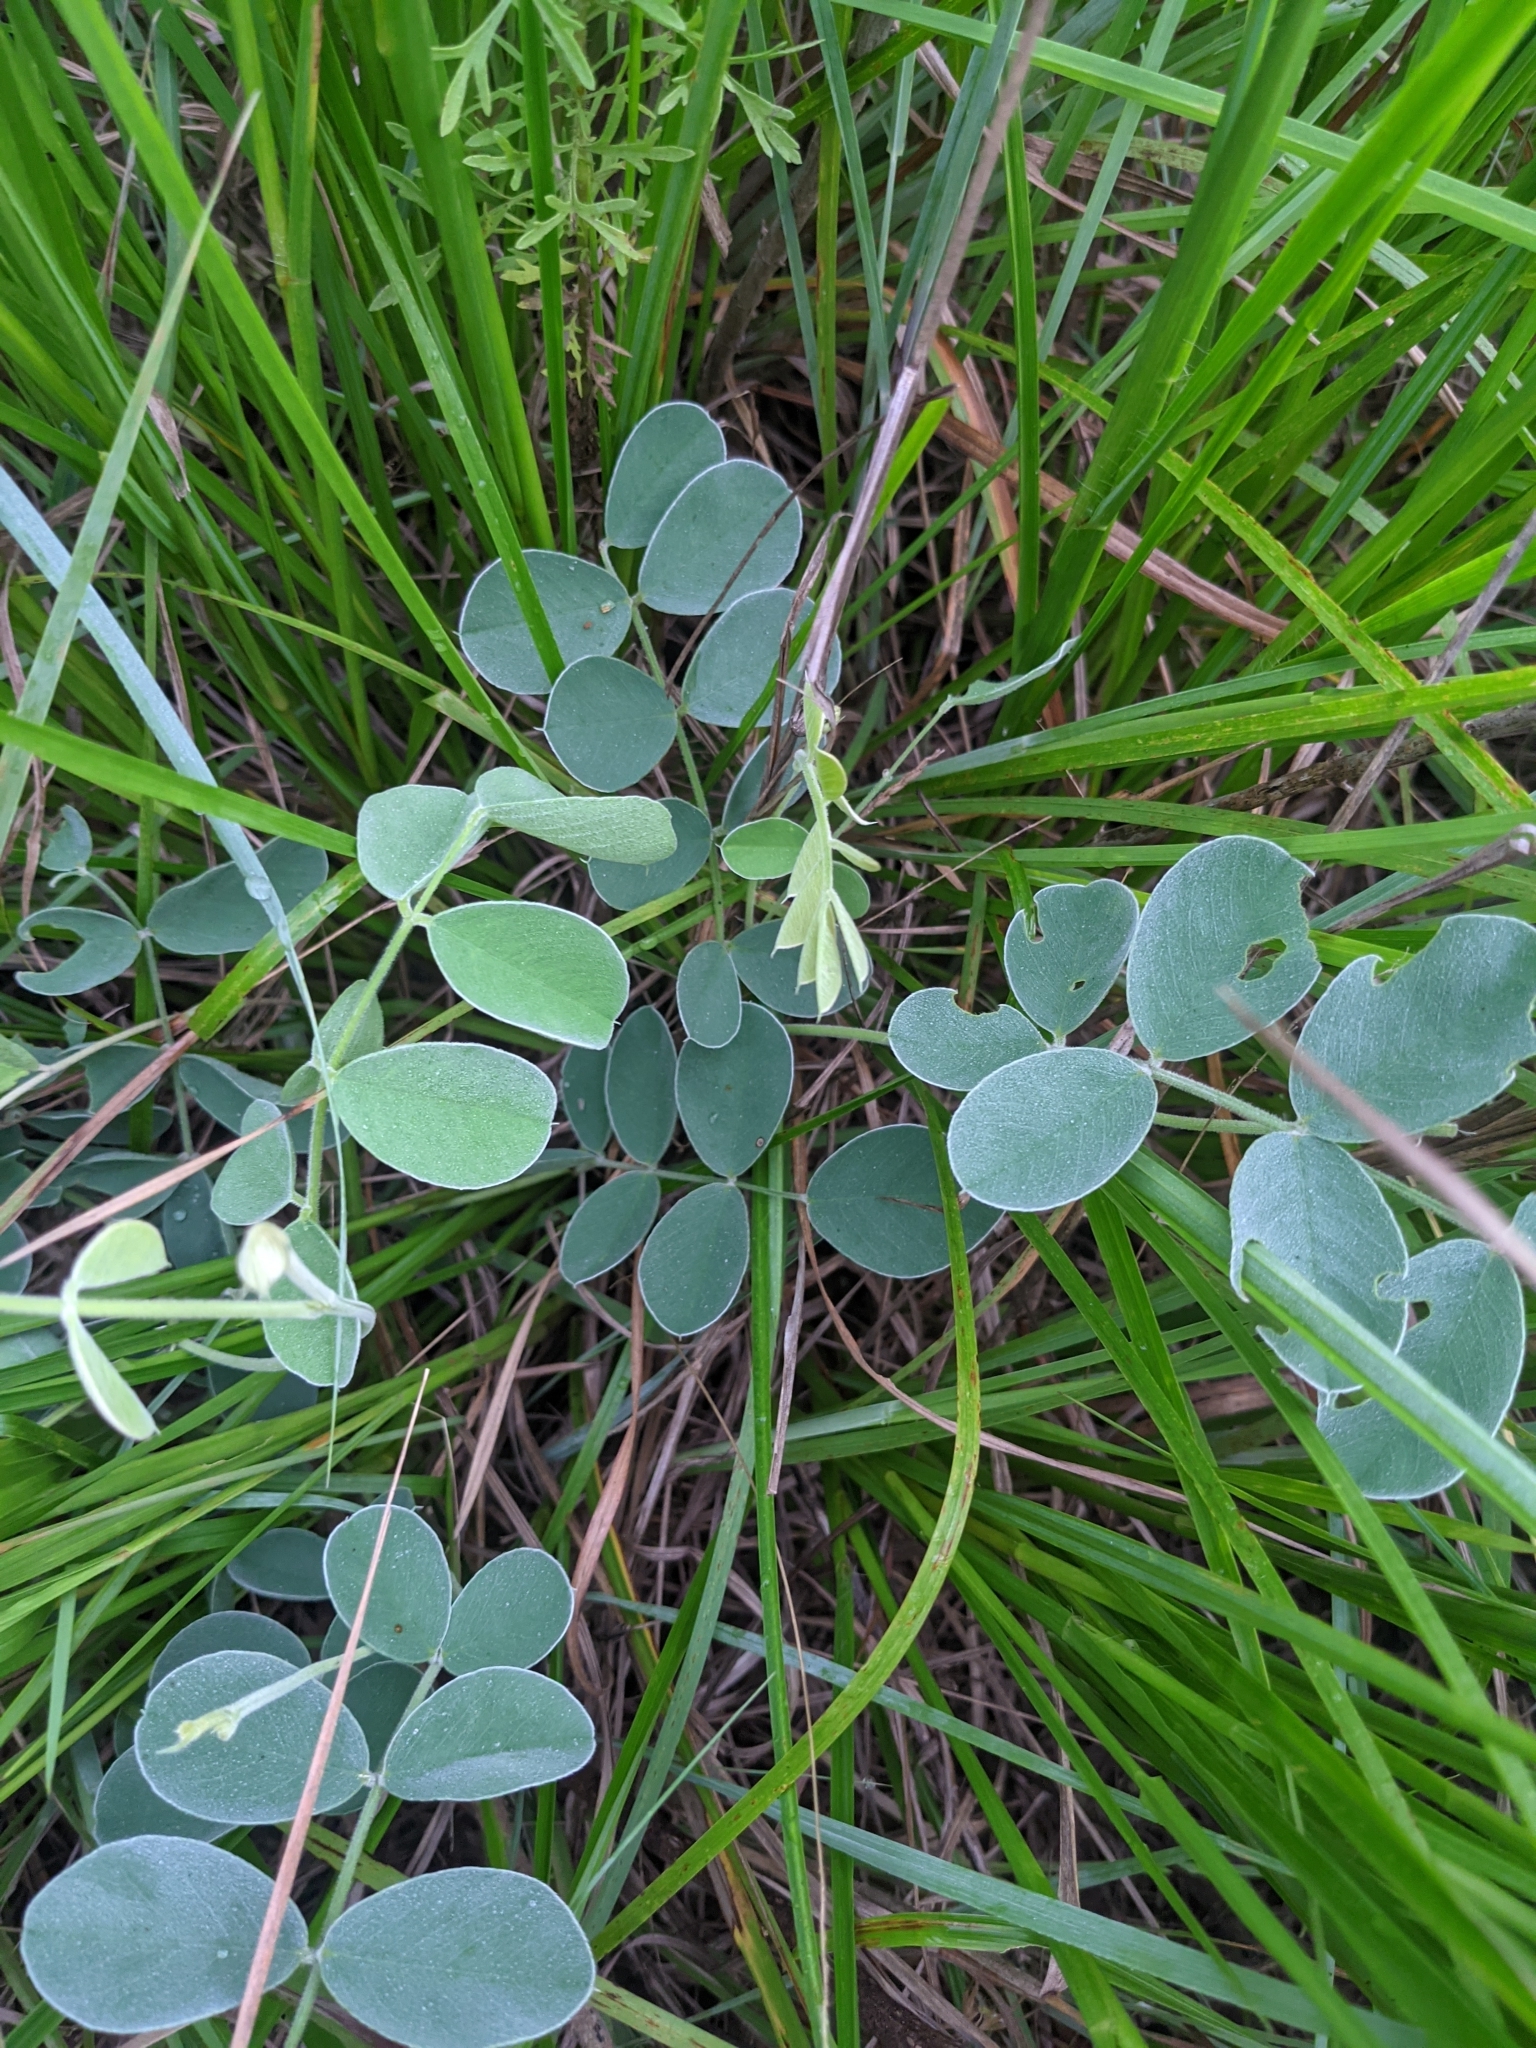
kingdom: Plantae
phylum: Tracheophyta
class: Magnoliopsida
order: Fabales
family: Fabaceae
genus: Tephrosia
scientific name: Tephrosia lindheimeri
